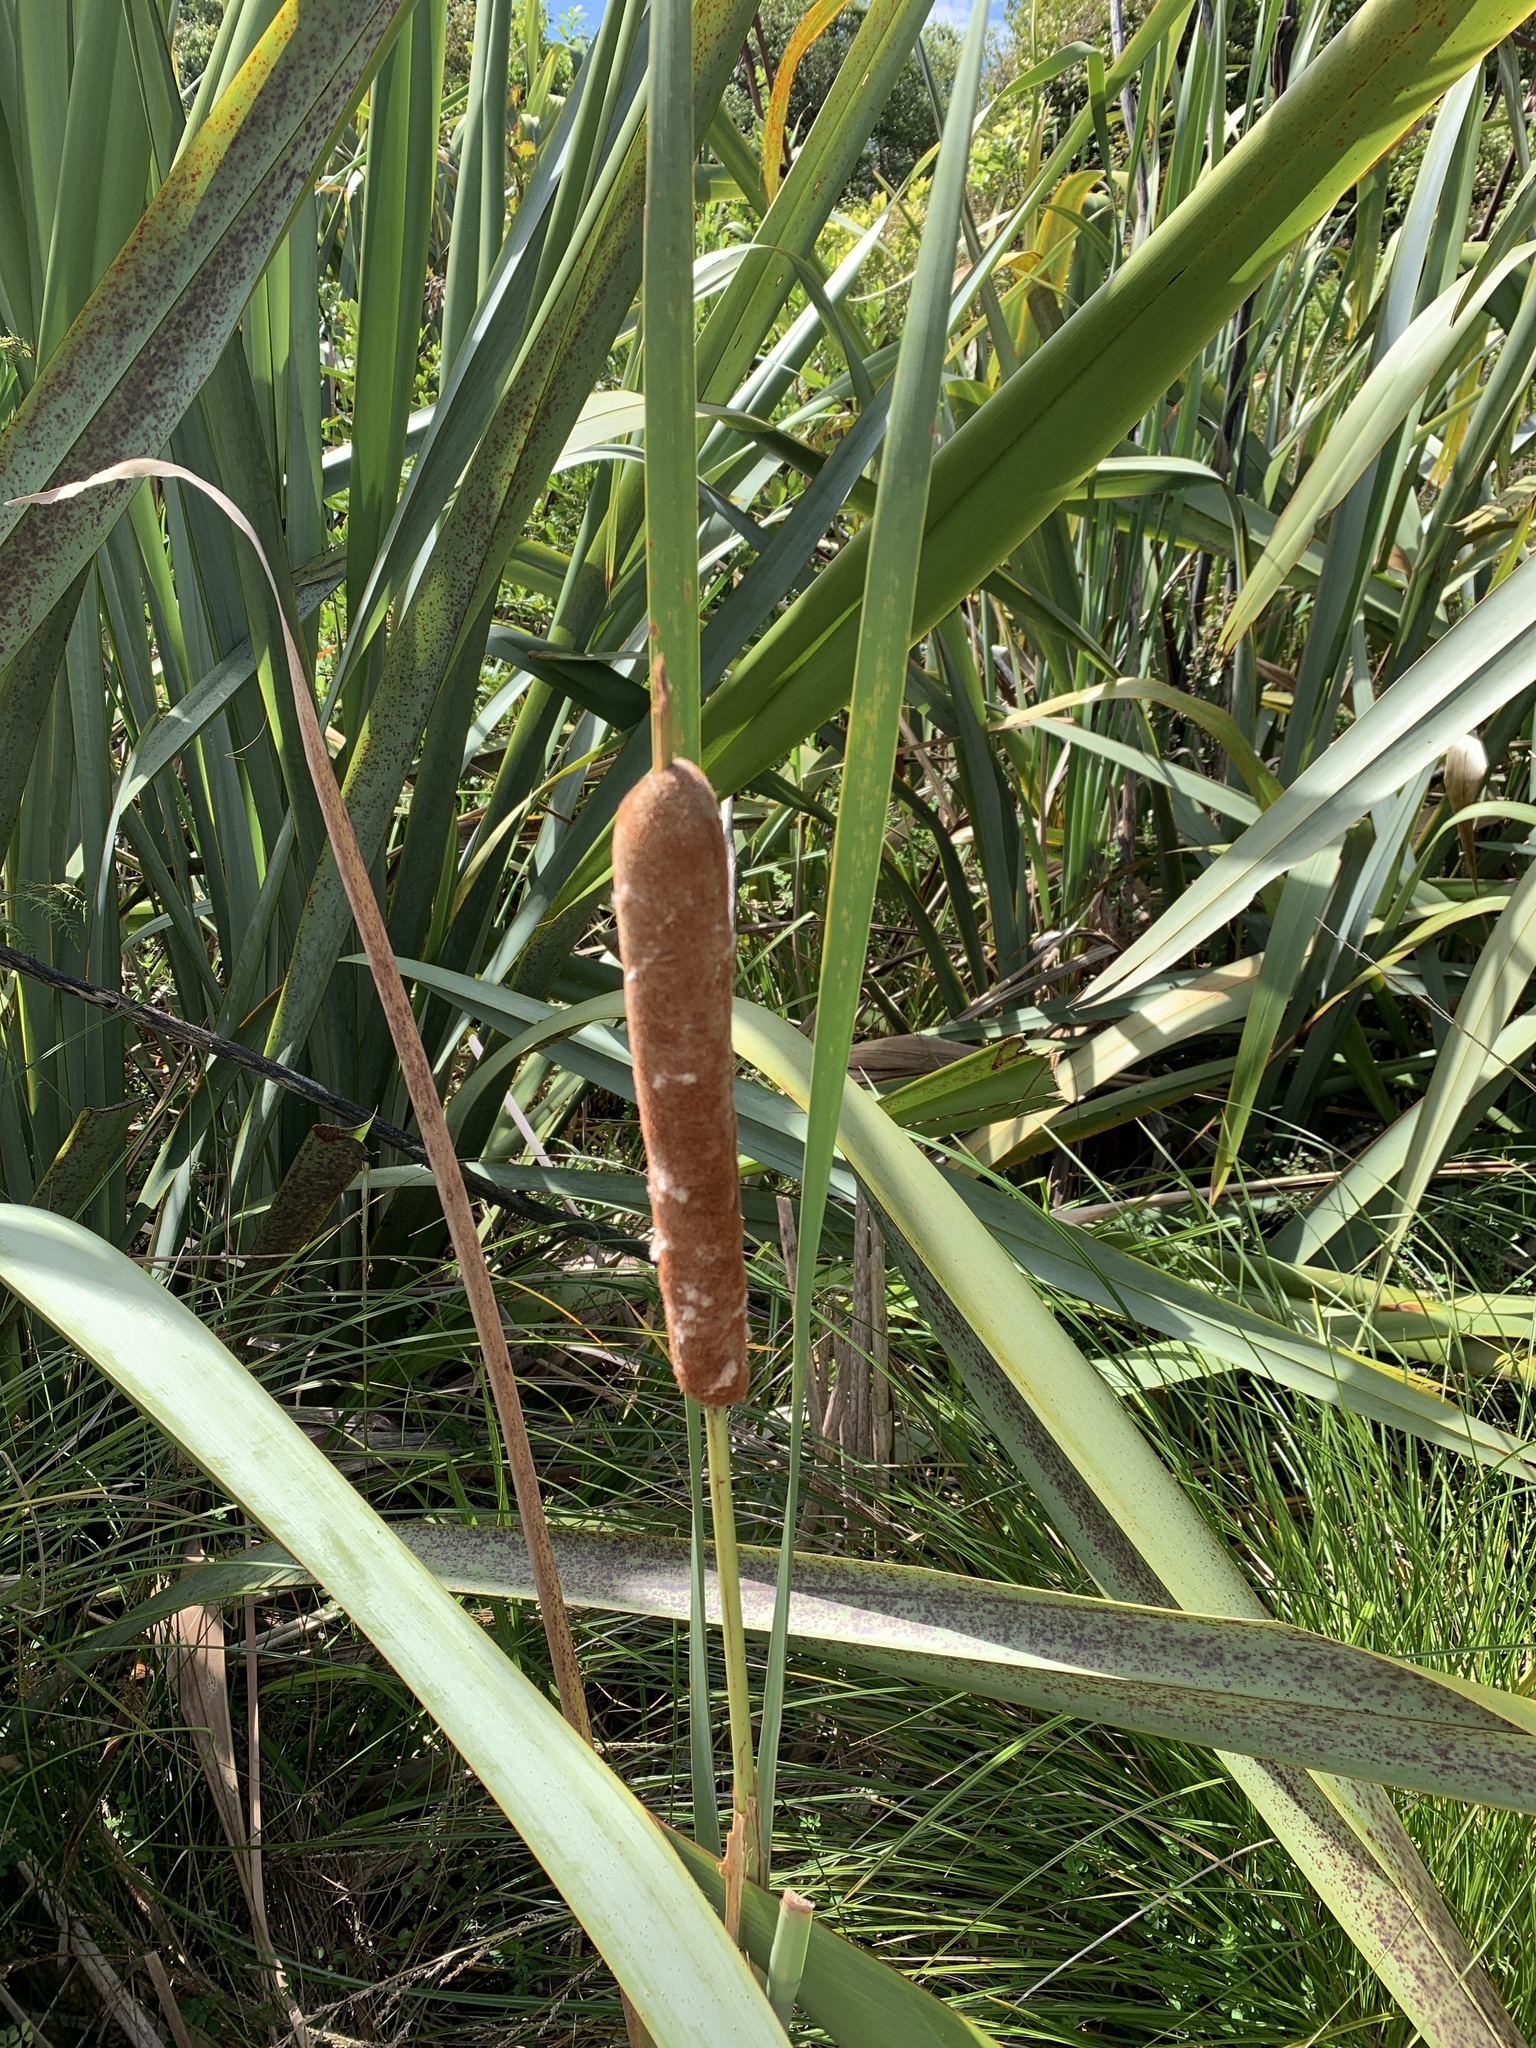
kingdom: Plantae
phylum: Tracheophyta
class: Liliopsida
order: Poales
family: Typhaceae
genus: Typha
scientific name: Typha orientalis
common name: Bullrush
